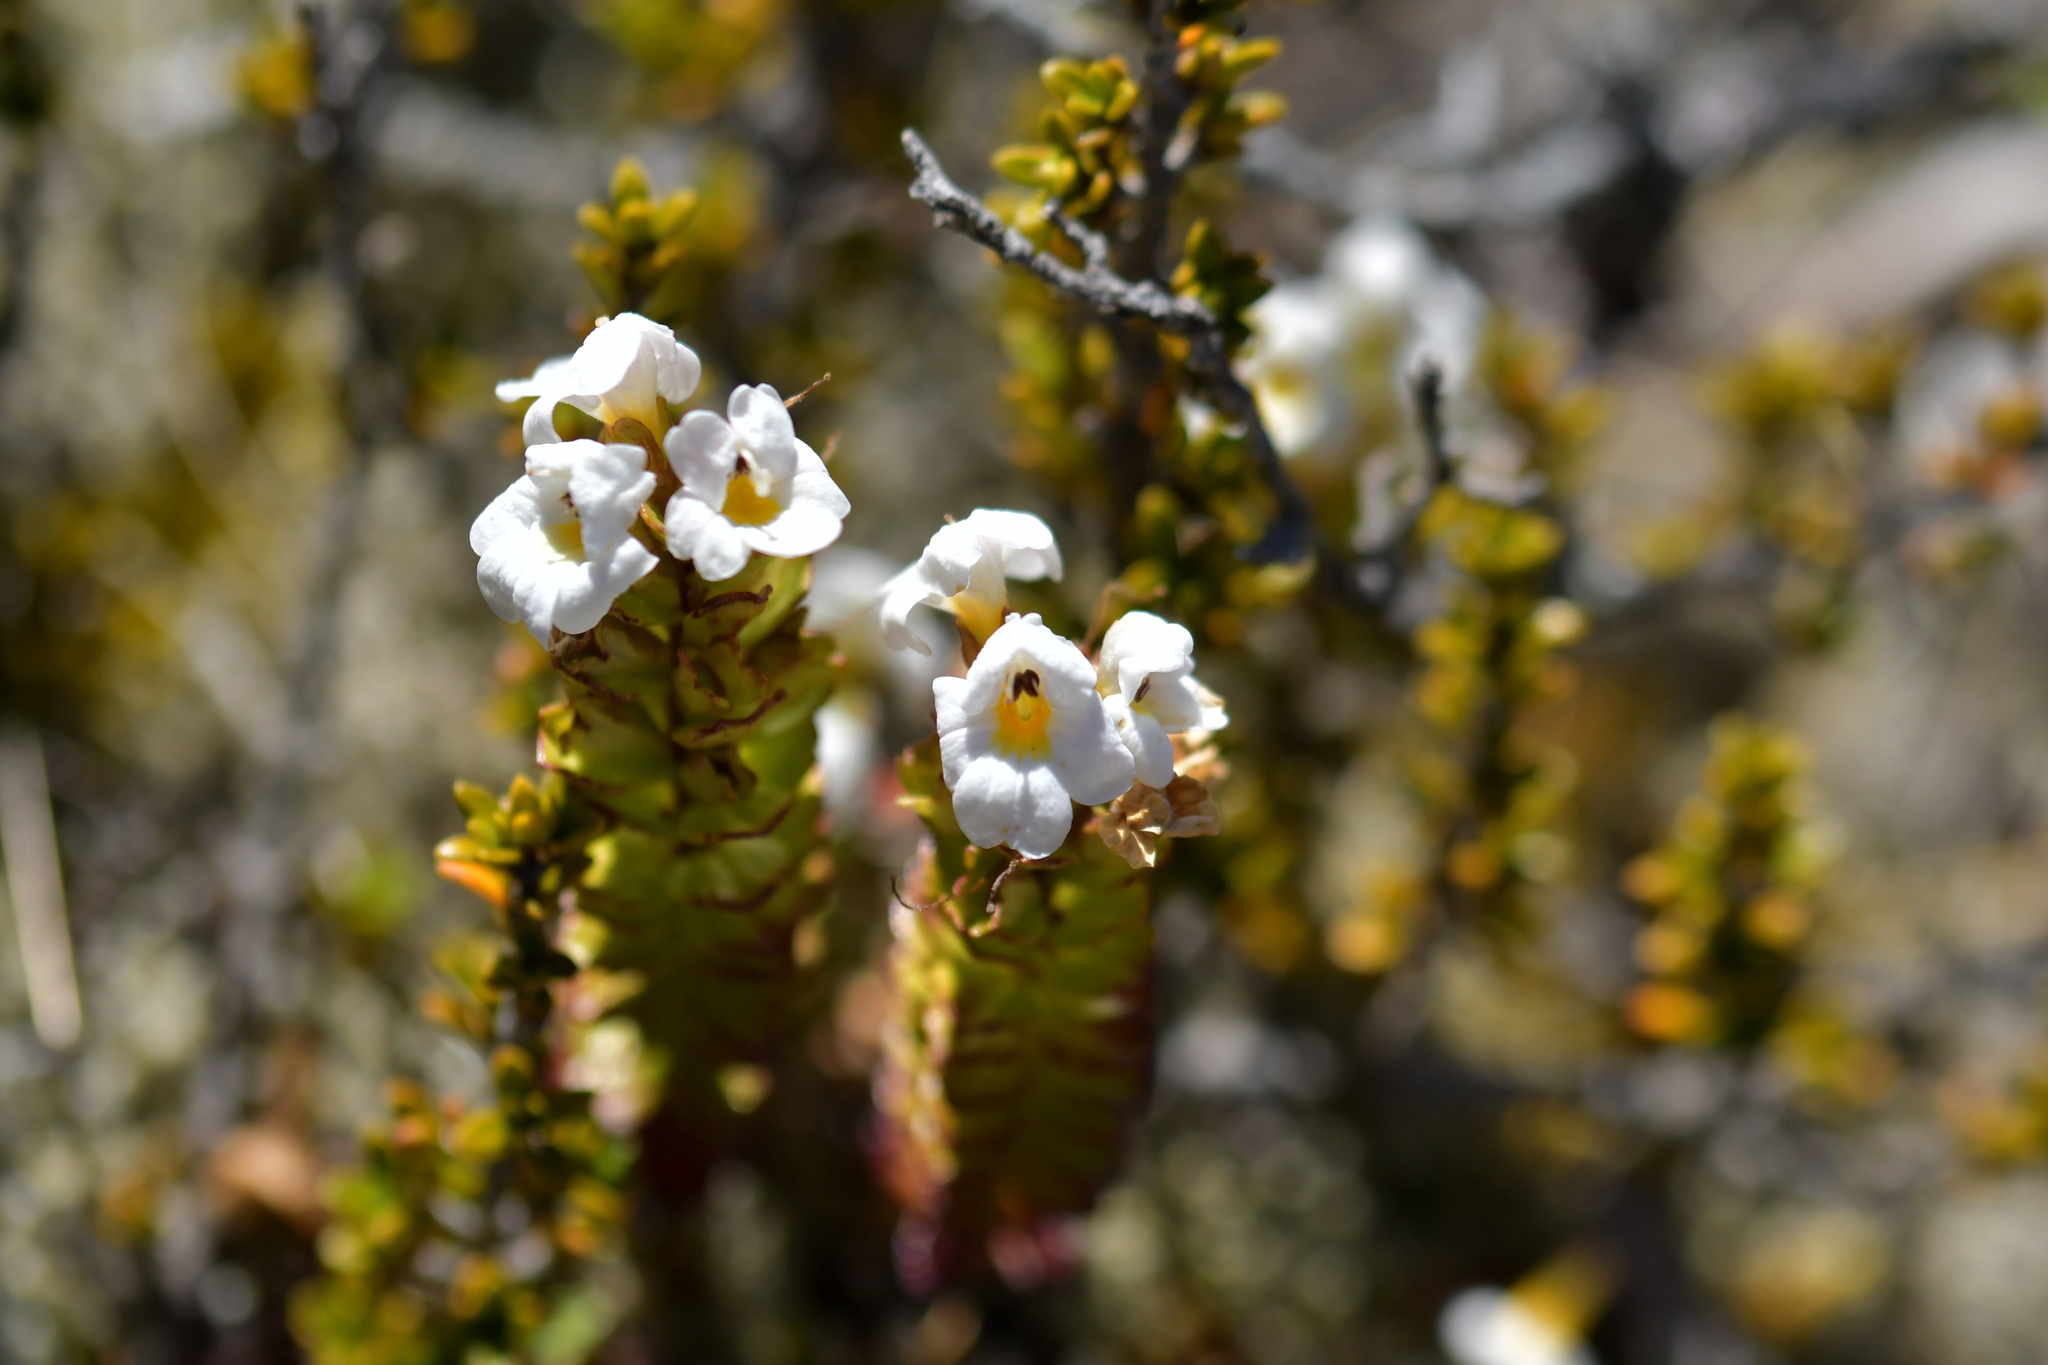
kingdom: Plantae
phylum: Tracheophyta
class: Magnoliopsida
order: Lamiales
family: Orobanchaceae
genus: Euphrasia
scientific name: Euphrasia monroi
